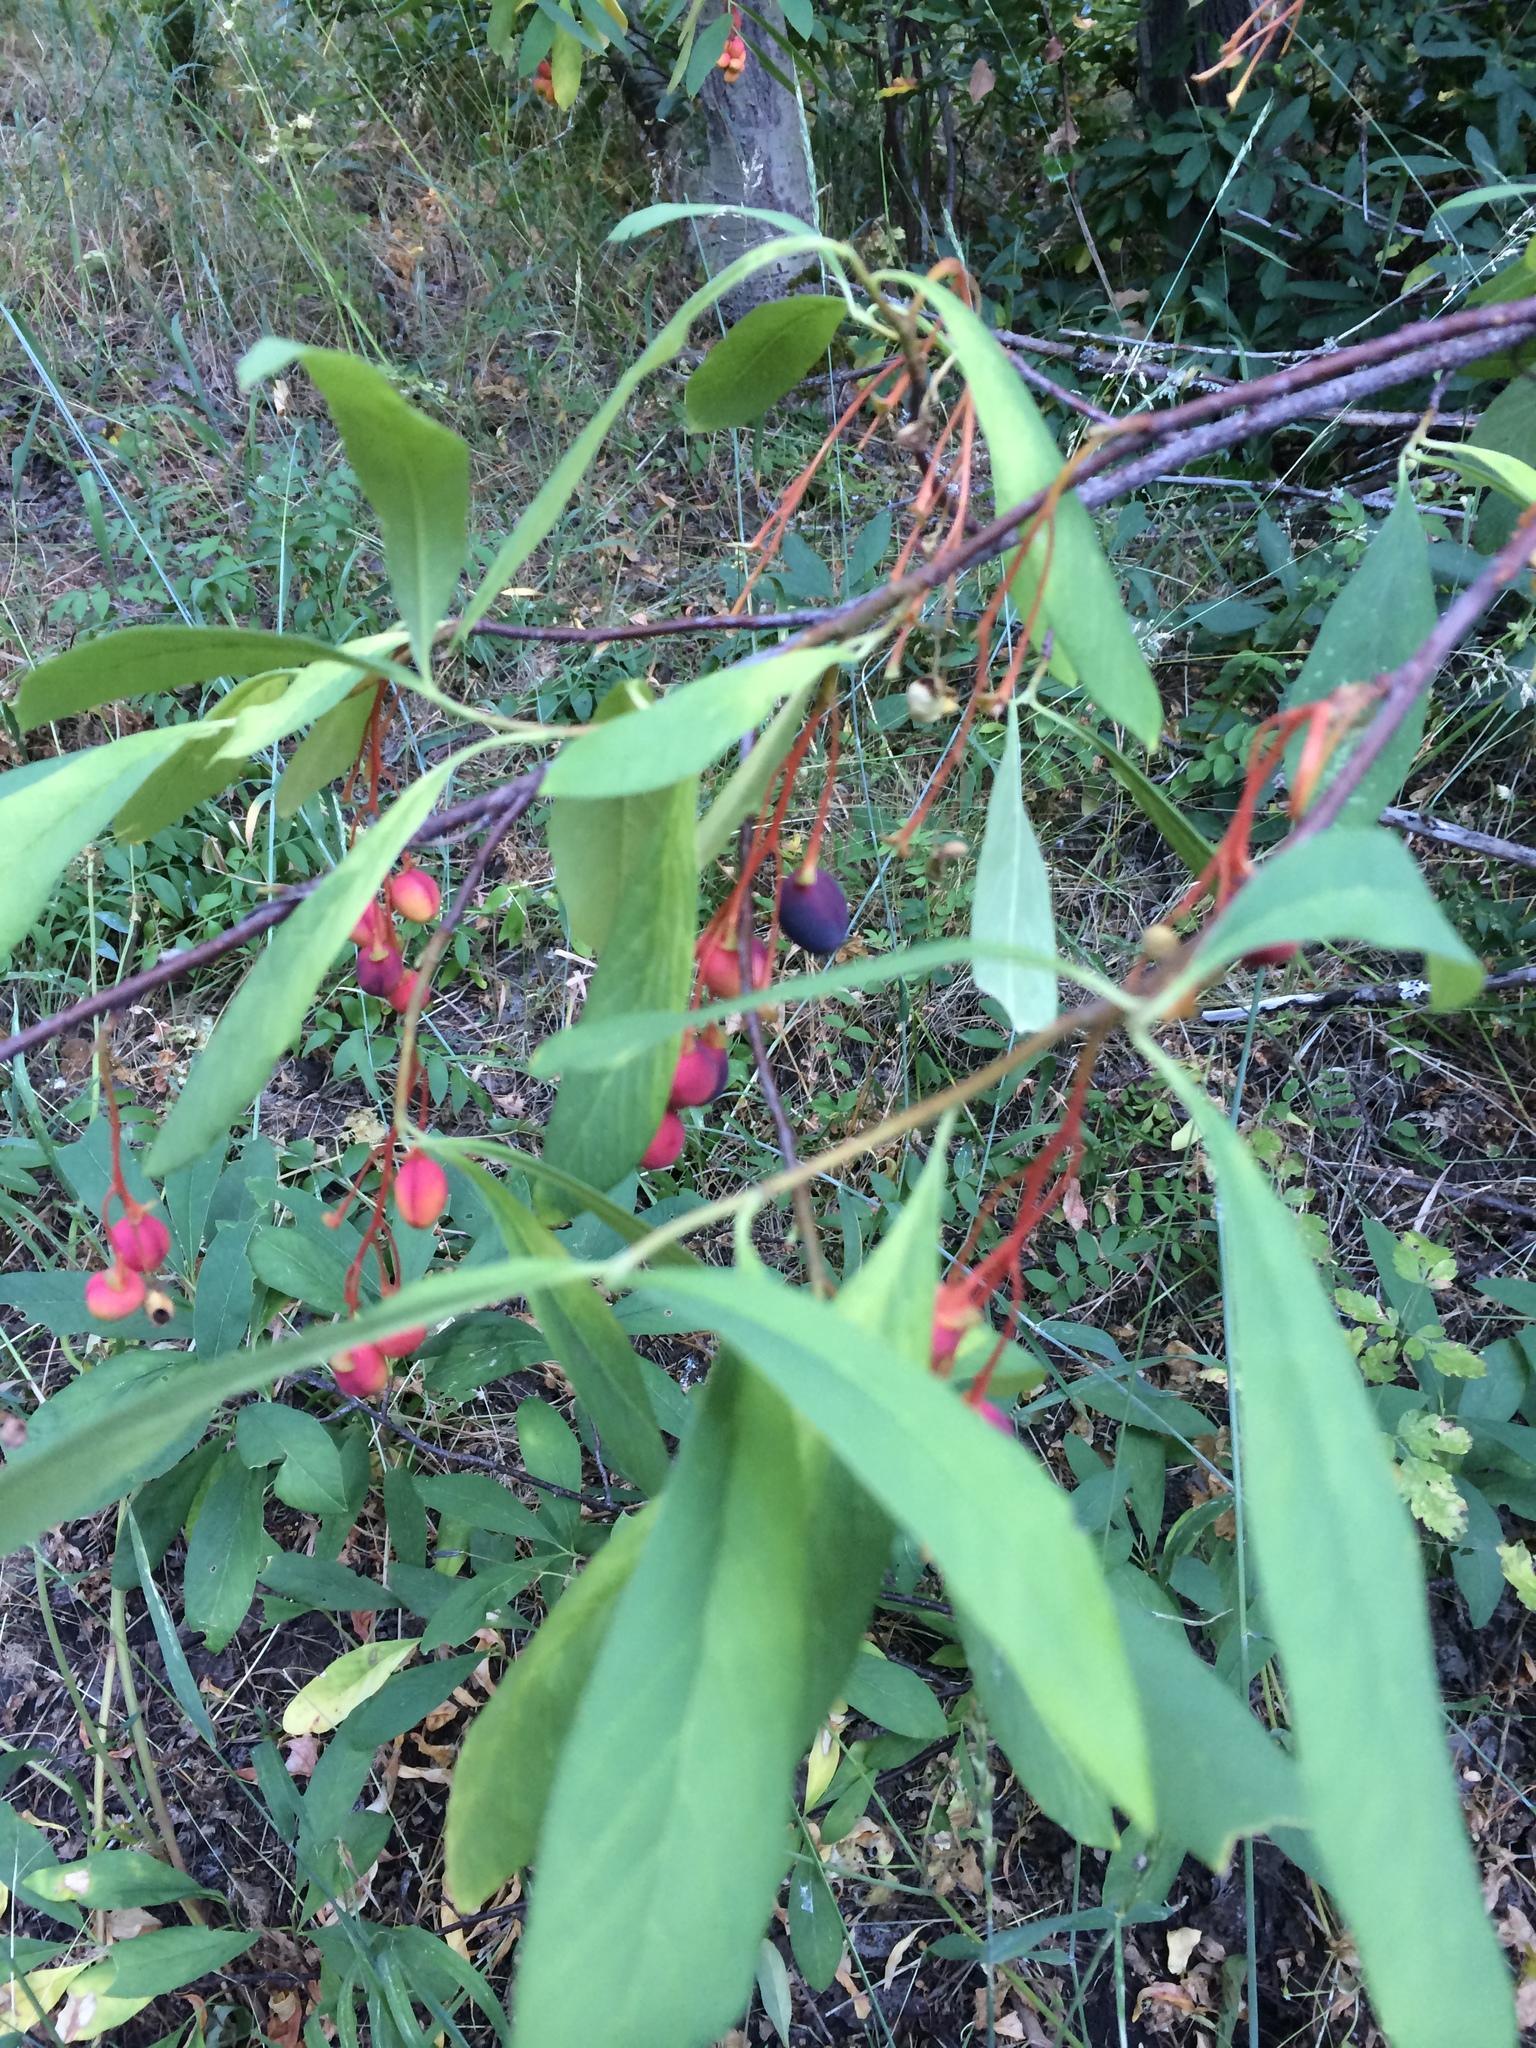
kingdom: Plantae
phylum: Tracheophyta
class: Magnoliopsida
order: Rosales
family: Rosaceae
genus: Oemleria
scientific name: Oemleria cerasiformis
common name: Osoberry
